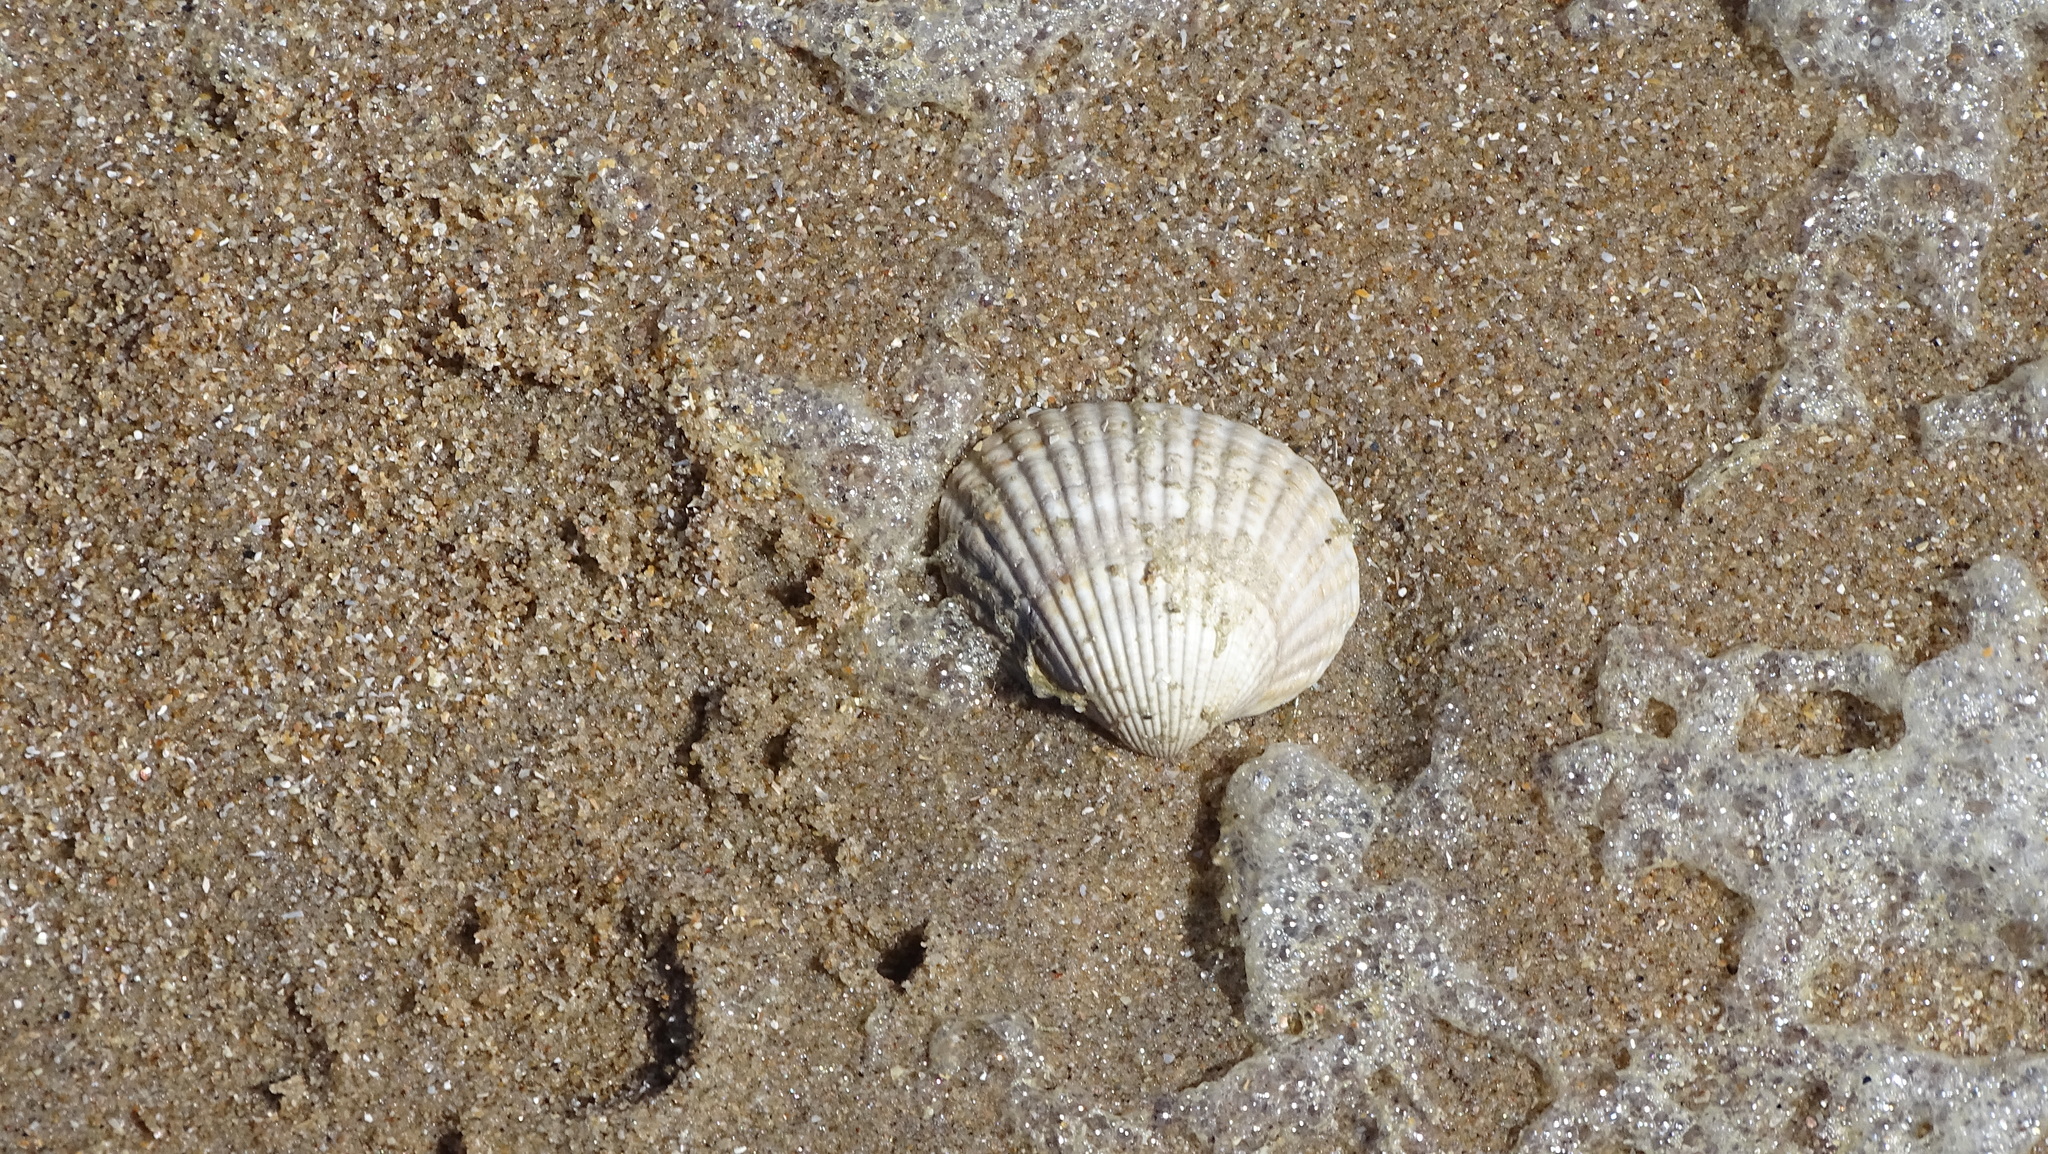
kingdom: Animalia
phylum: Mollusca
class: Bivalvia
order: Cardiida
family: Cardiidae
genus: Cerastoderma
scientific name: Cerastoderma edule
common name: Common cockle
